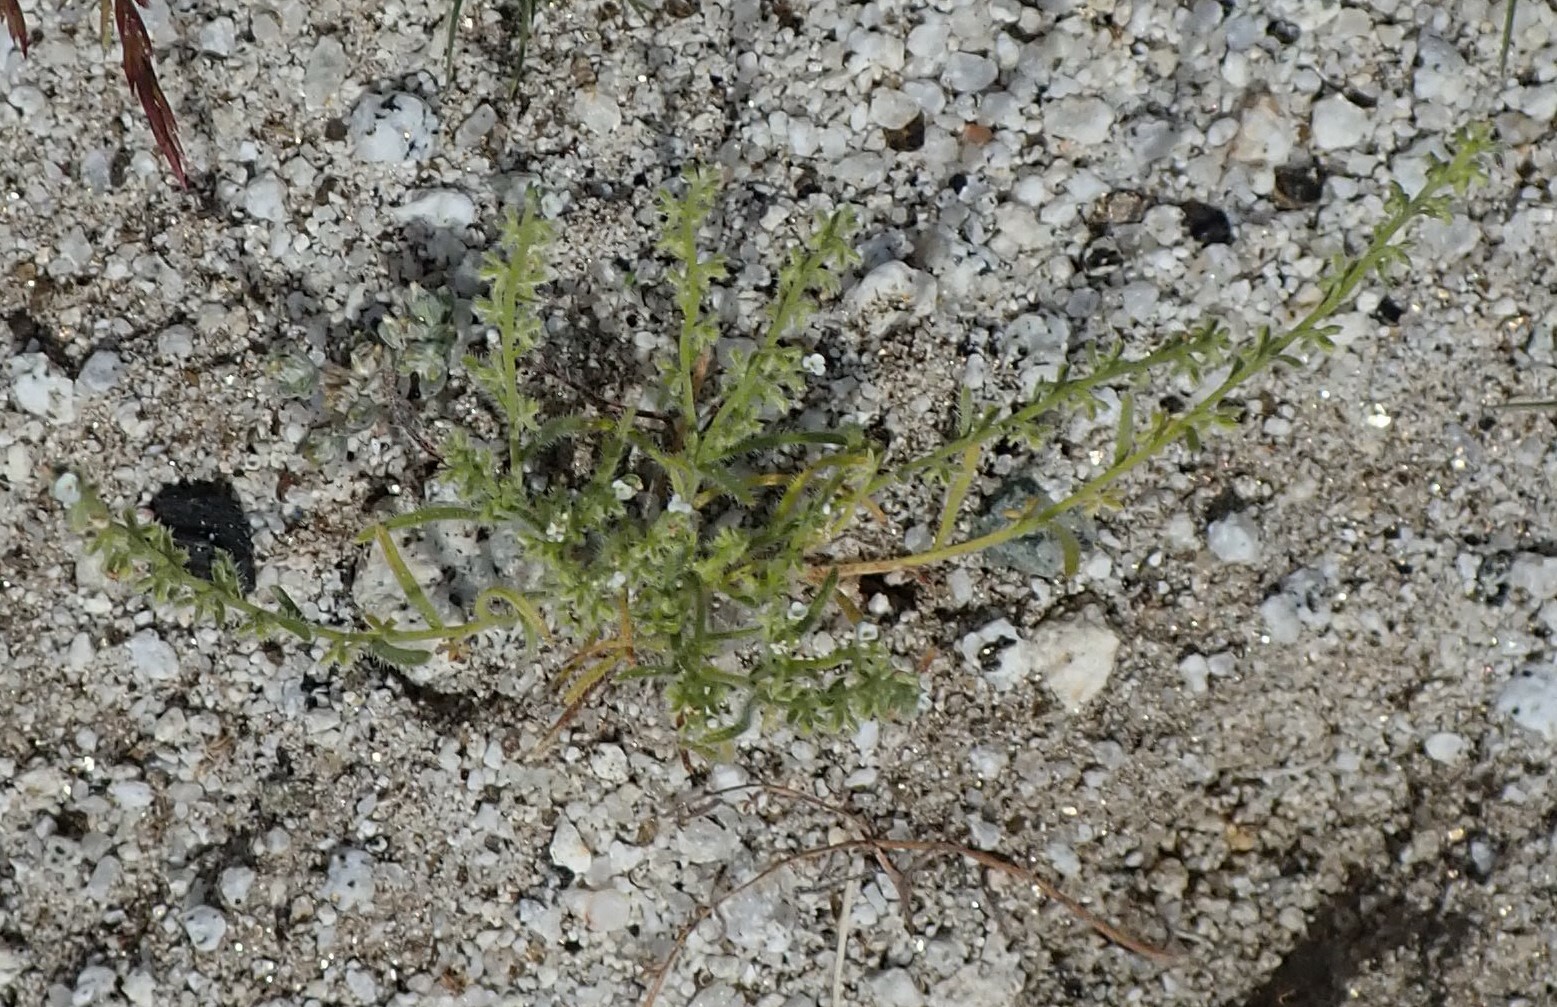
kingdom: Plantae
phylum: Tracheophyta
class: Magnoliopsida
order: Boraginales
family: Boraginaceae
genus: Pectocarya
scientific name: Pectocarya heterocarpa
